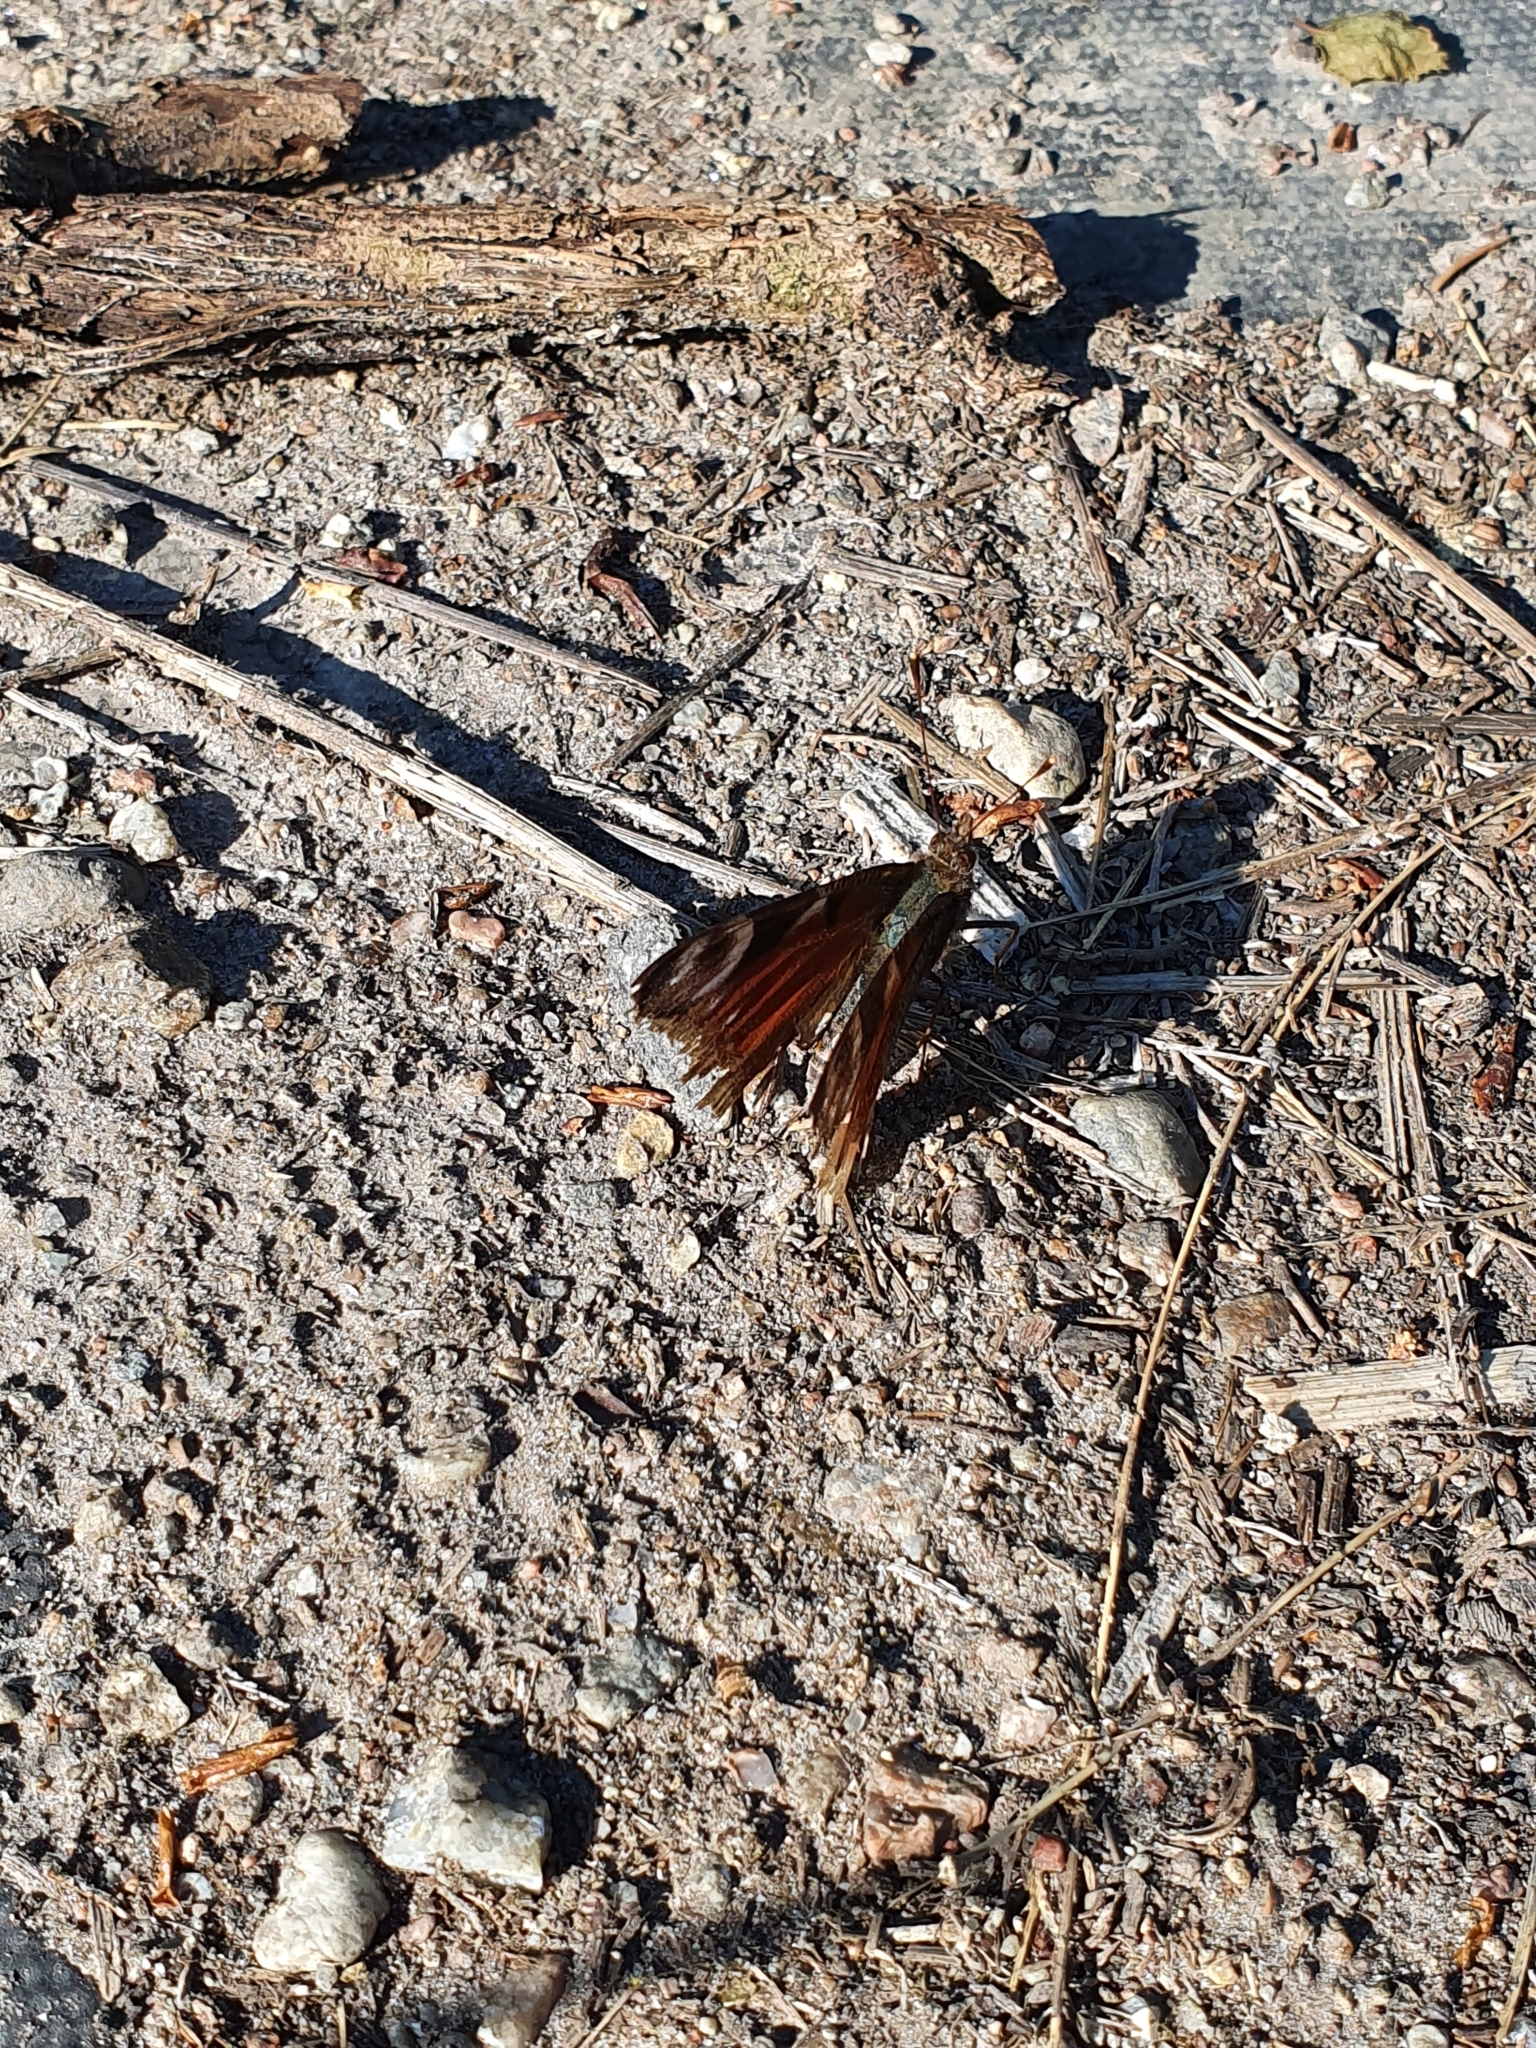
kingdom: Animalia
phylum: Arthropoda
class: Insecta
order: Lepidoptera
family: Nymphalidae
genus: Aglais
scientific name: Aglais io
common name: Peacock
